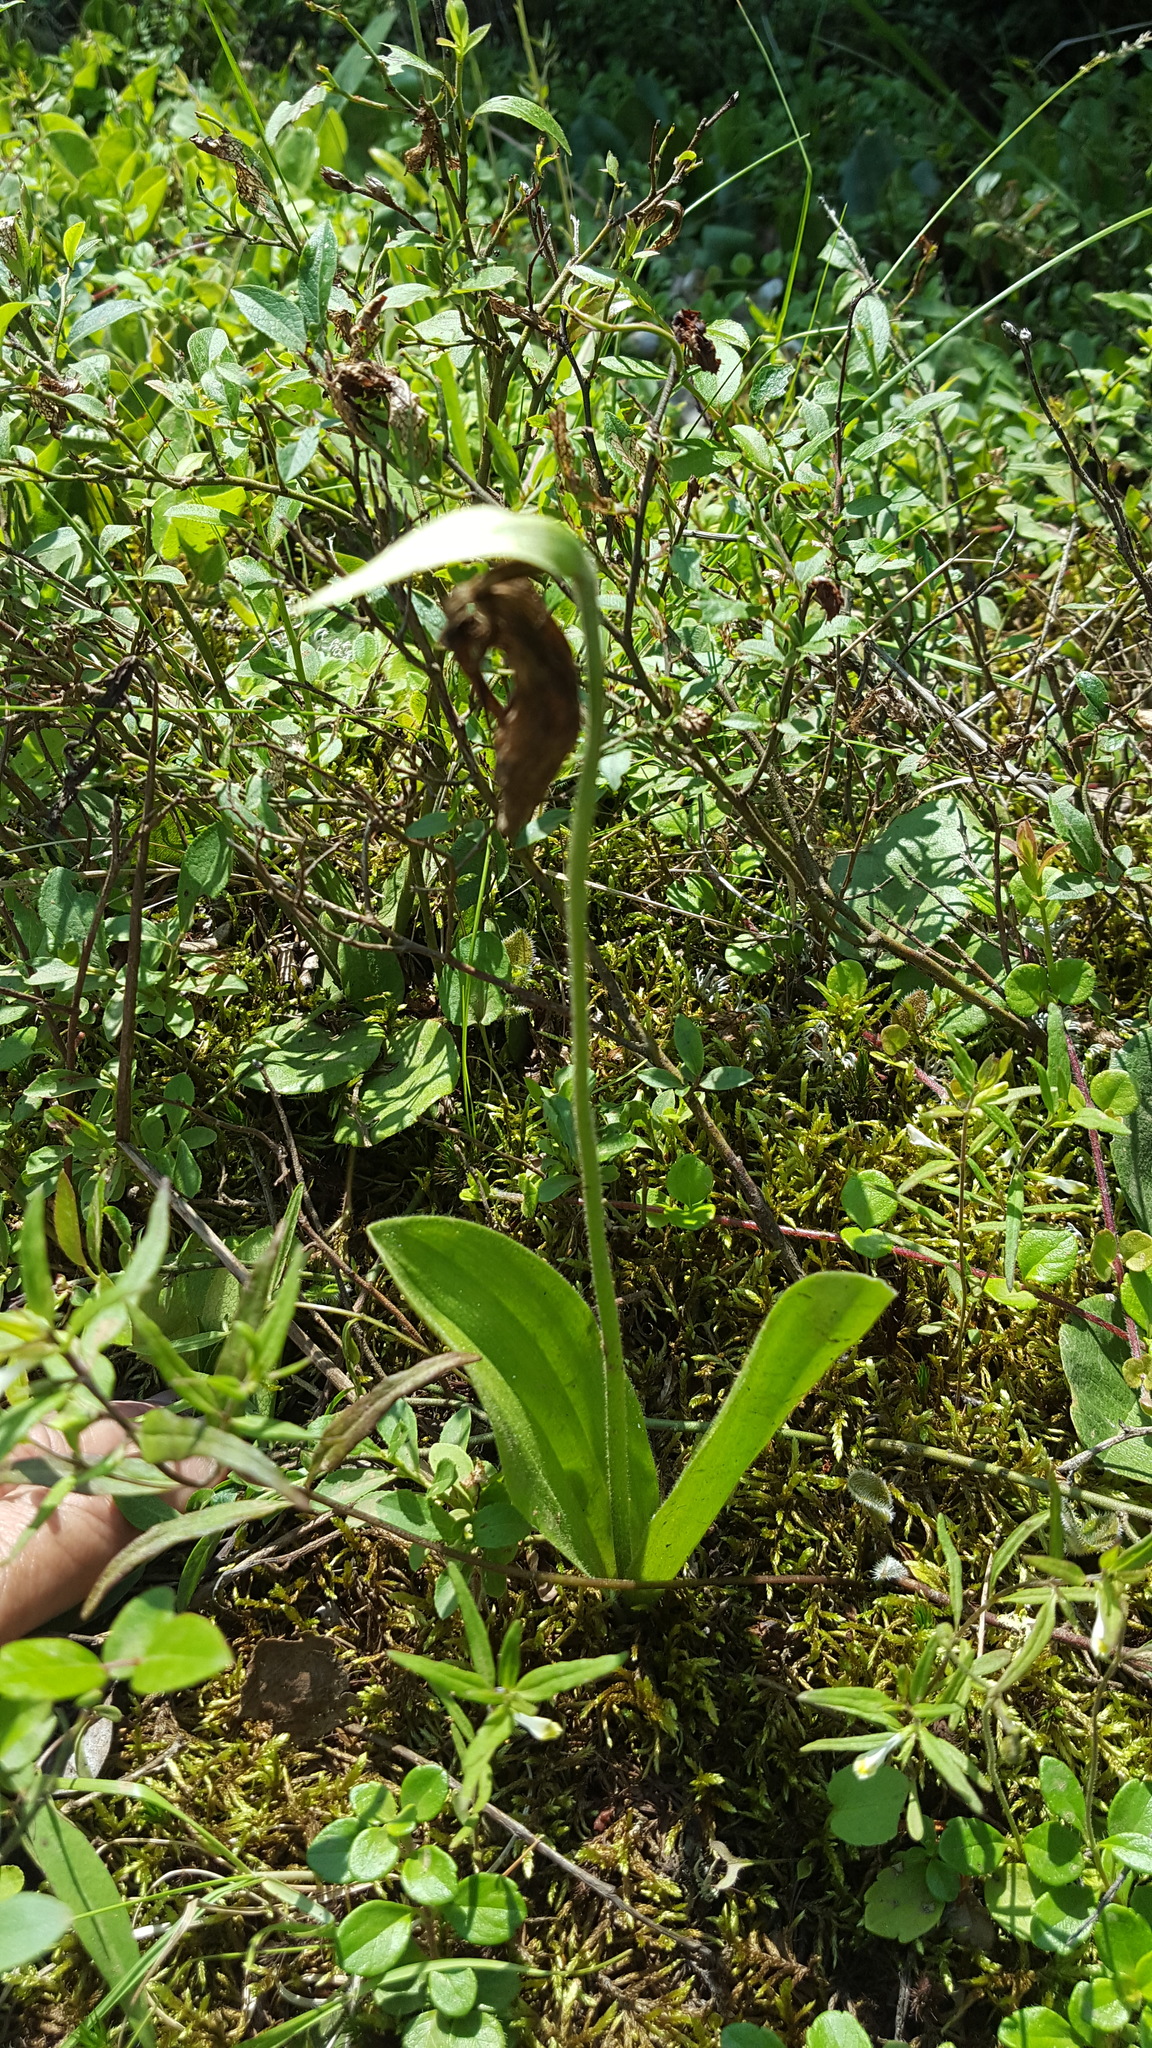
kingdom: Plantae
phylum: Tracheophyta
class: Liliopsida
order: Asparagales
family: Orchidaceae
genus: Cypripedium
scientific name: Cypripedium acaule
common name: Pink lady's-slipper
